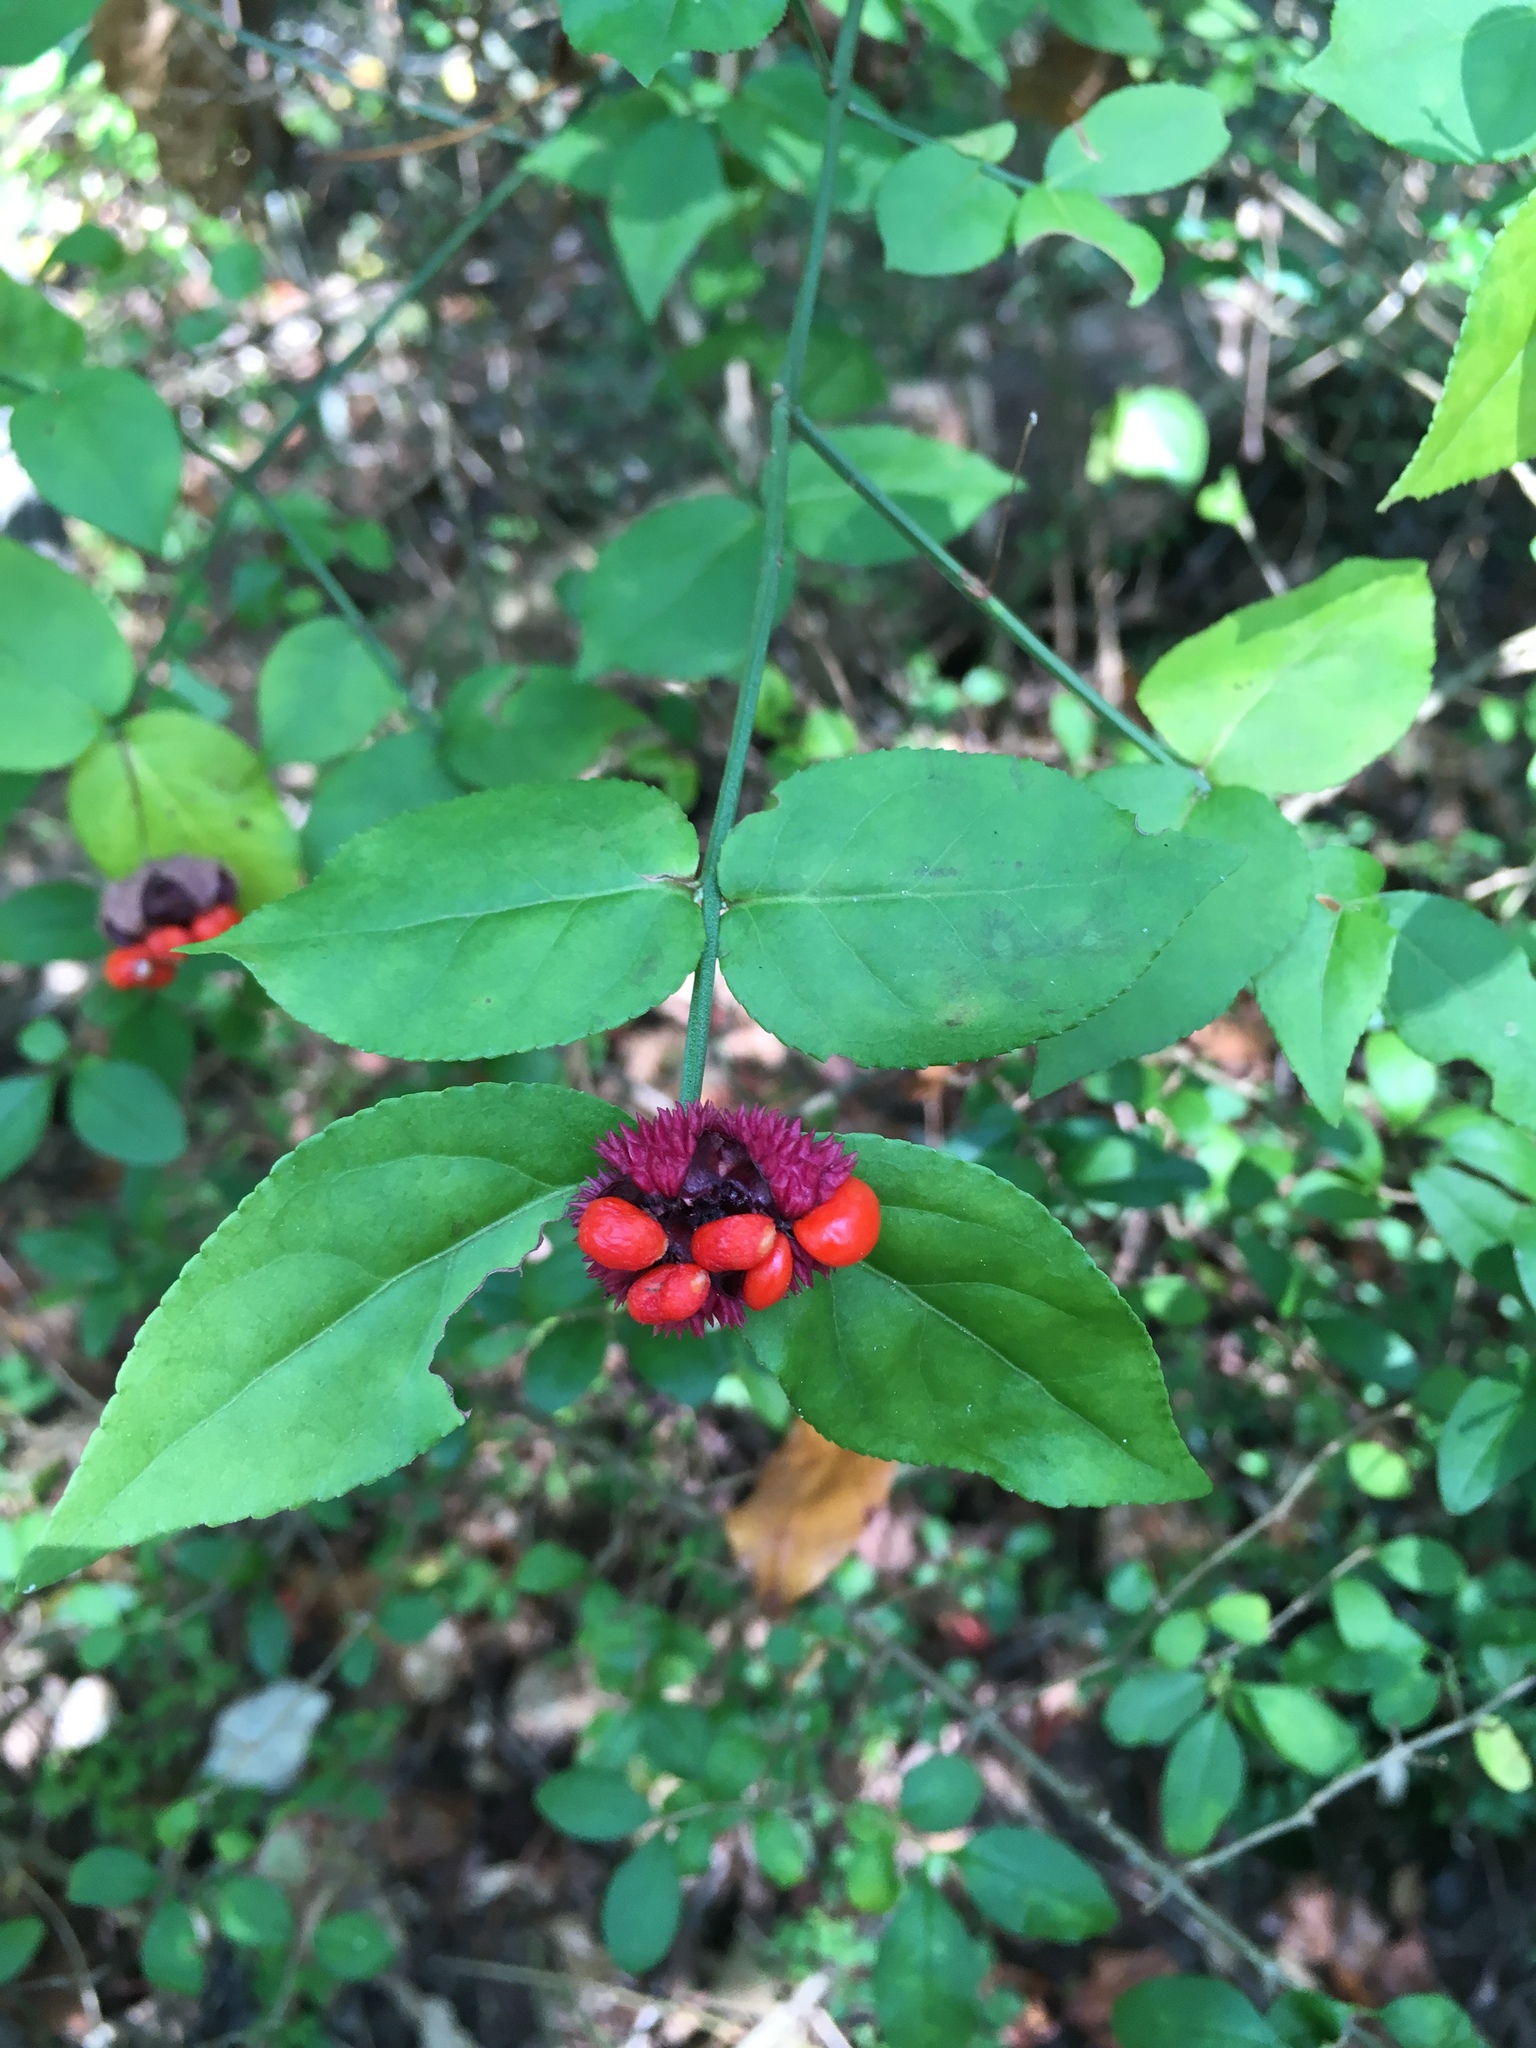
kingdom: Plantae
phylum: Tracheophyta
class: Magnoliopsida
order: Celastrales
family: Celastraceae
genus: Euonymus
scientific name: Euonymus americanus
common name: Bursting-heart
